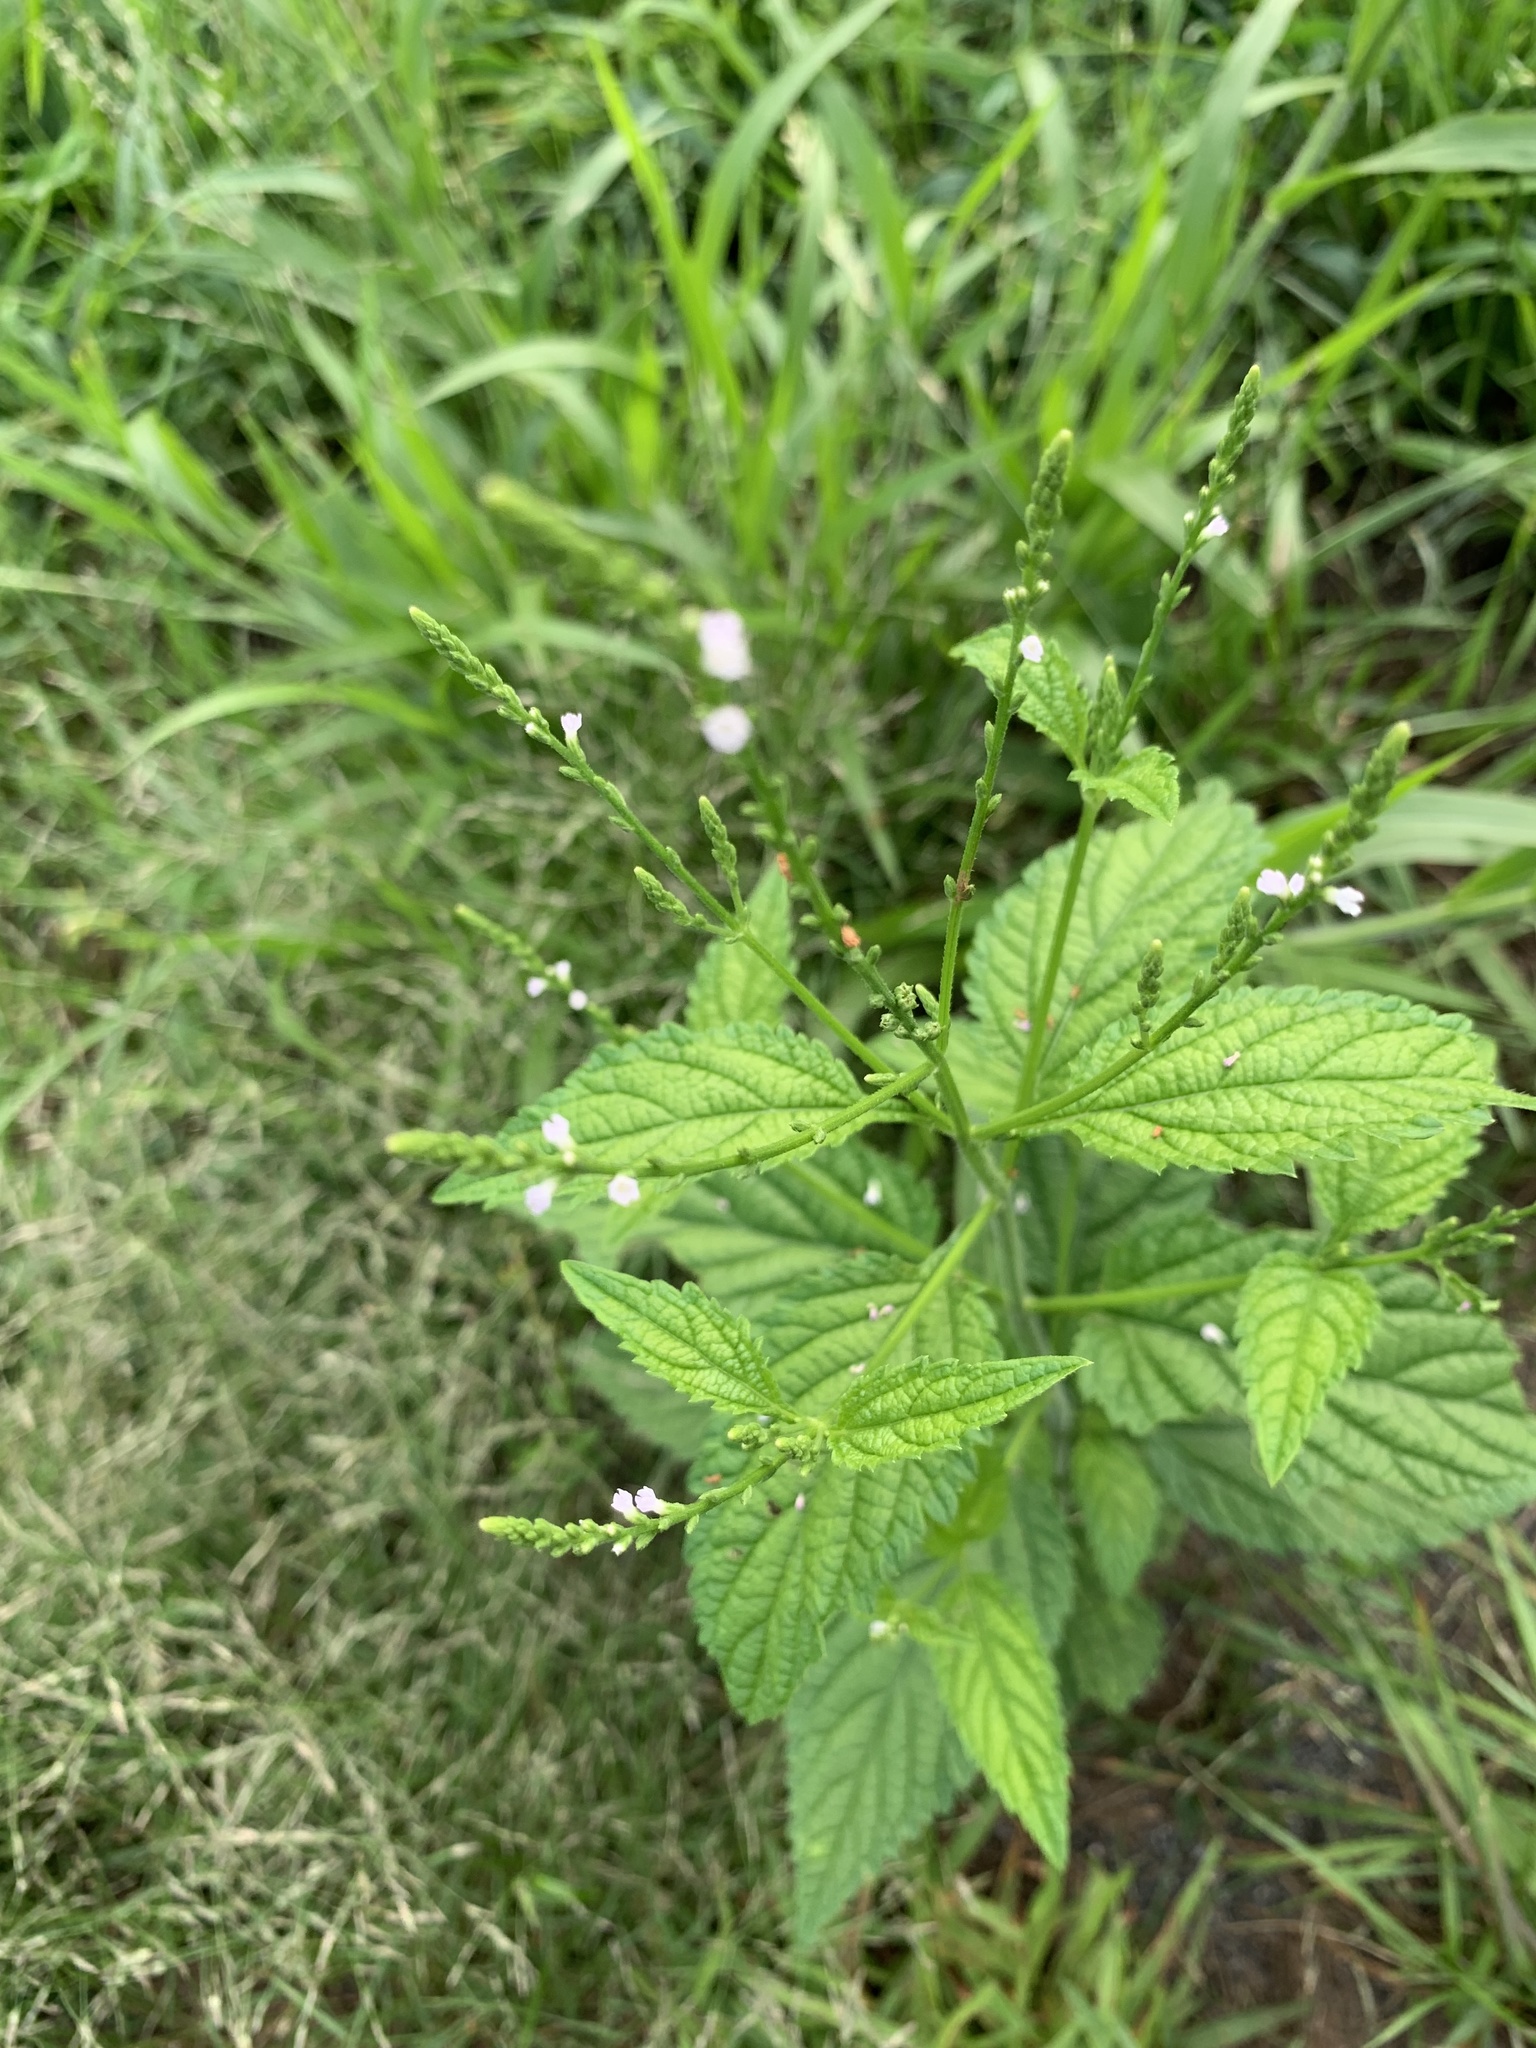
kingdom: Plantae
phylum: Tracheophyta
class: Magnoliopsida
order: Lamiales
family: Verbenaceae
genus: Verbena
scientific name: Verbena urticifolia
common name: Nettle-leaved vervain
